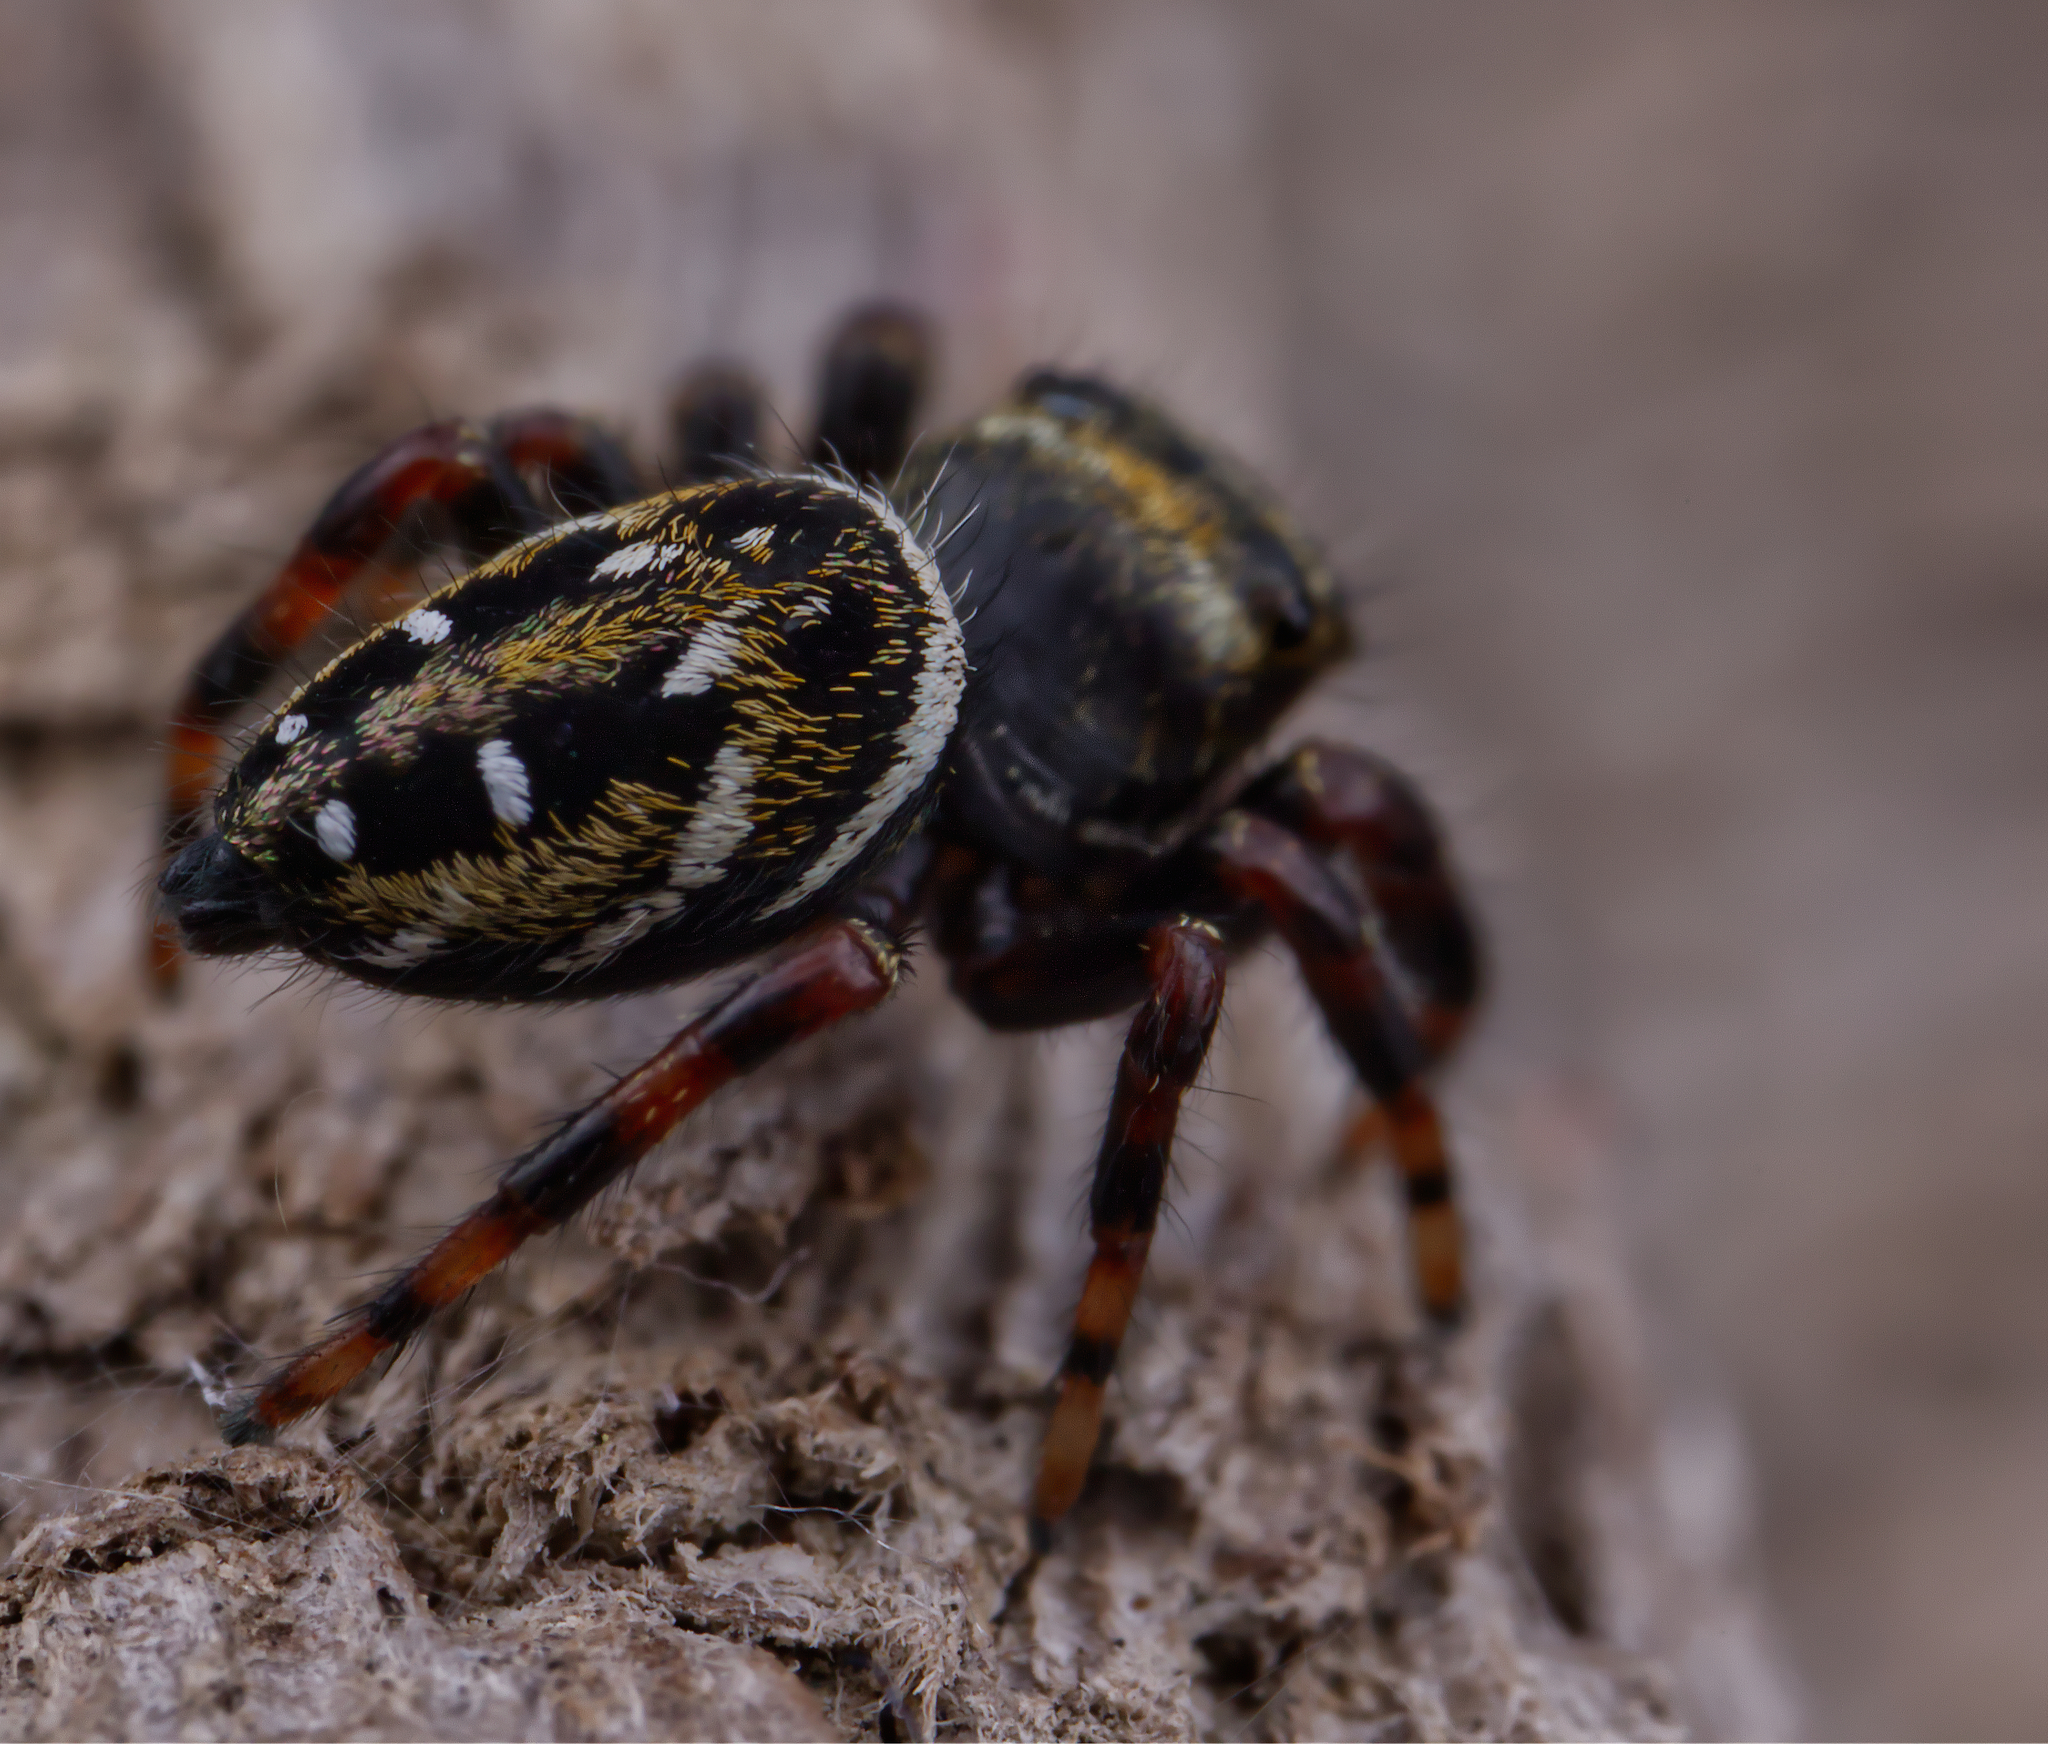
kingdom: Animalia
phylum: Arthropoda
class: Arachnida
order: Araneae
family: Salticidae
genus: Phidippus
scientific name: Phidippus clarus
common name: Brilliant jumping spider
